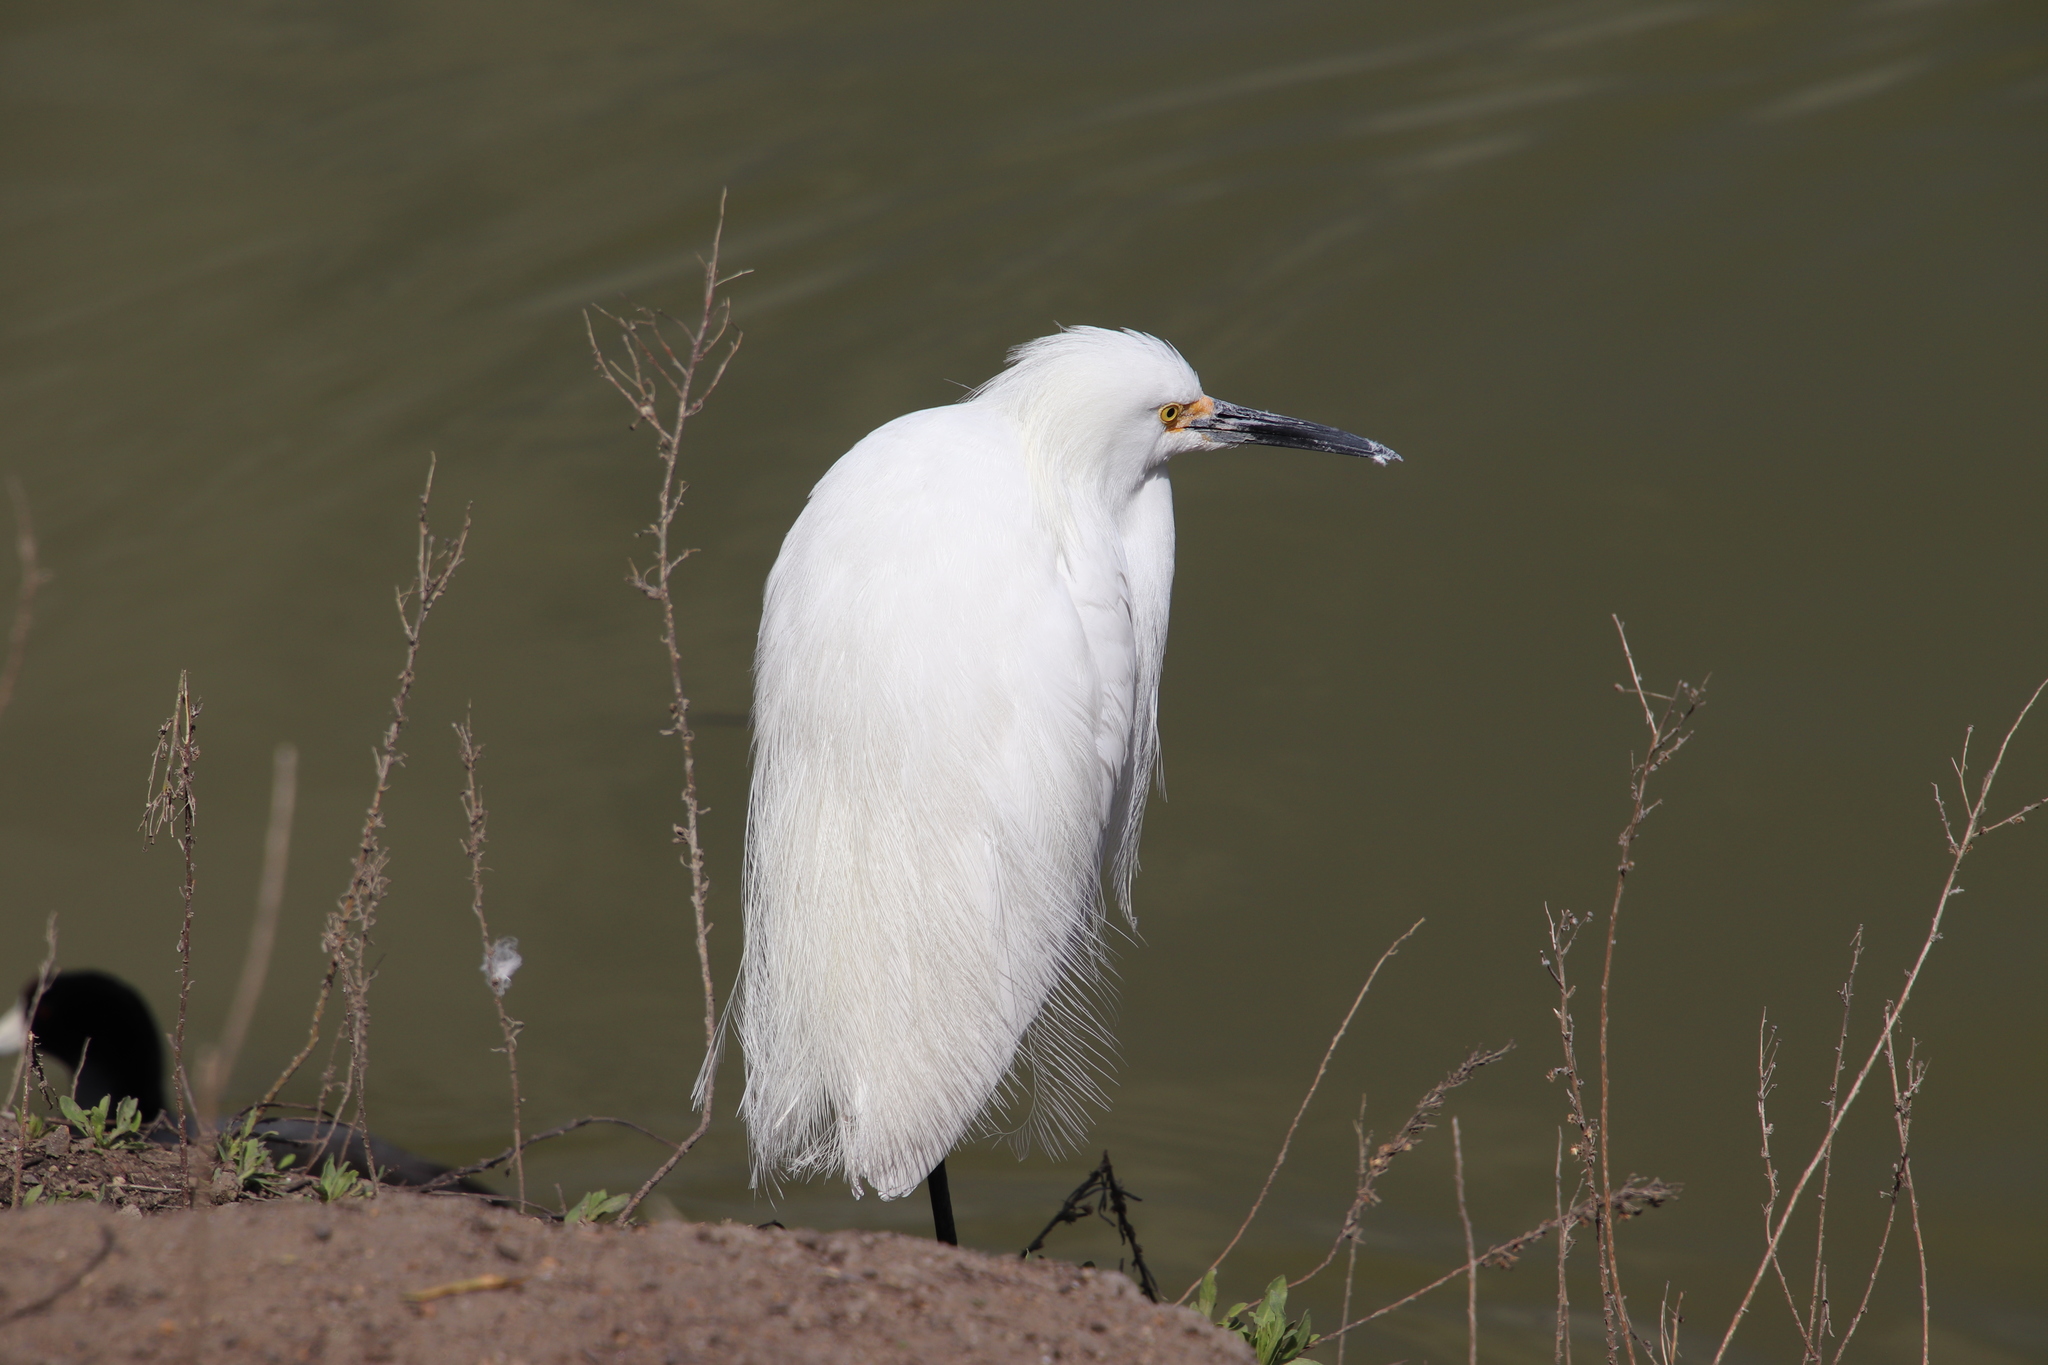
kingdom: Animalia
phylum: Chordata
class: Aves
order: Pelecaniformes
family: Ardeidae
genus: Egretta
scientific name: Egretta thula
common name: Snowy egret
